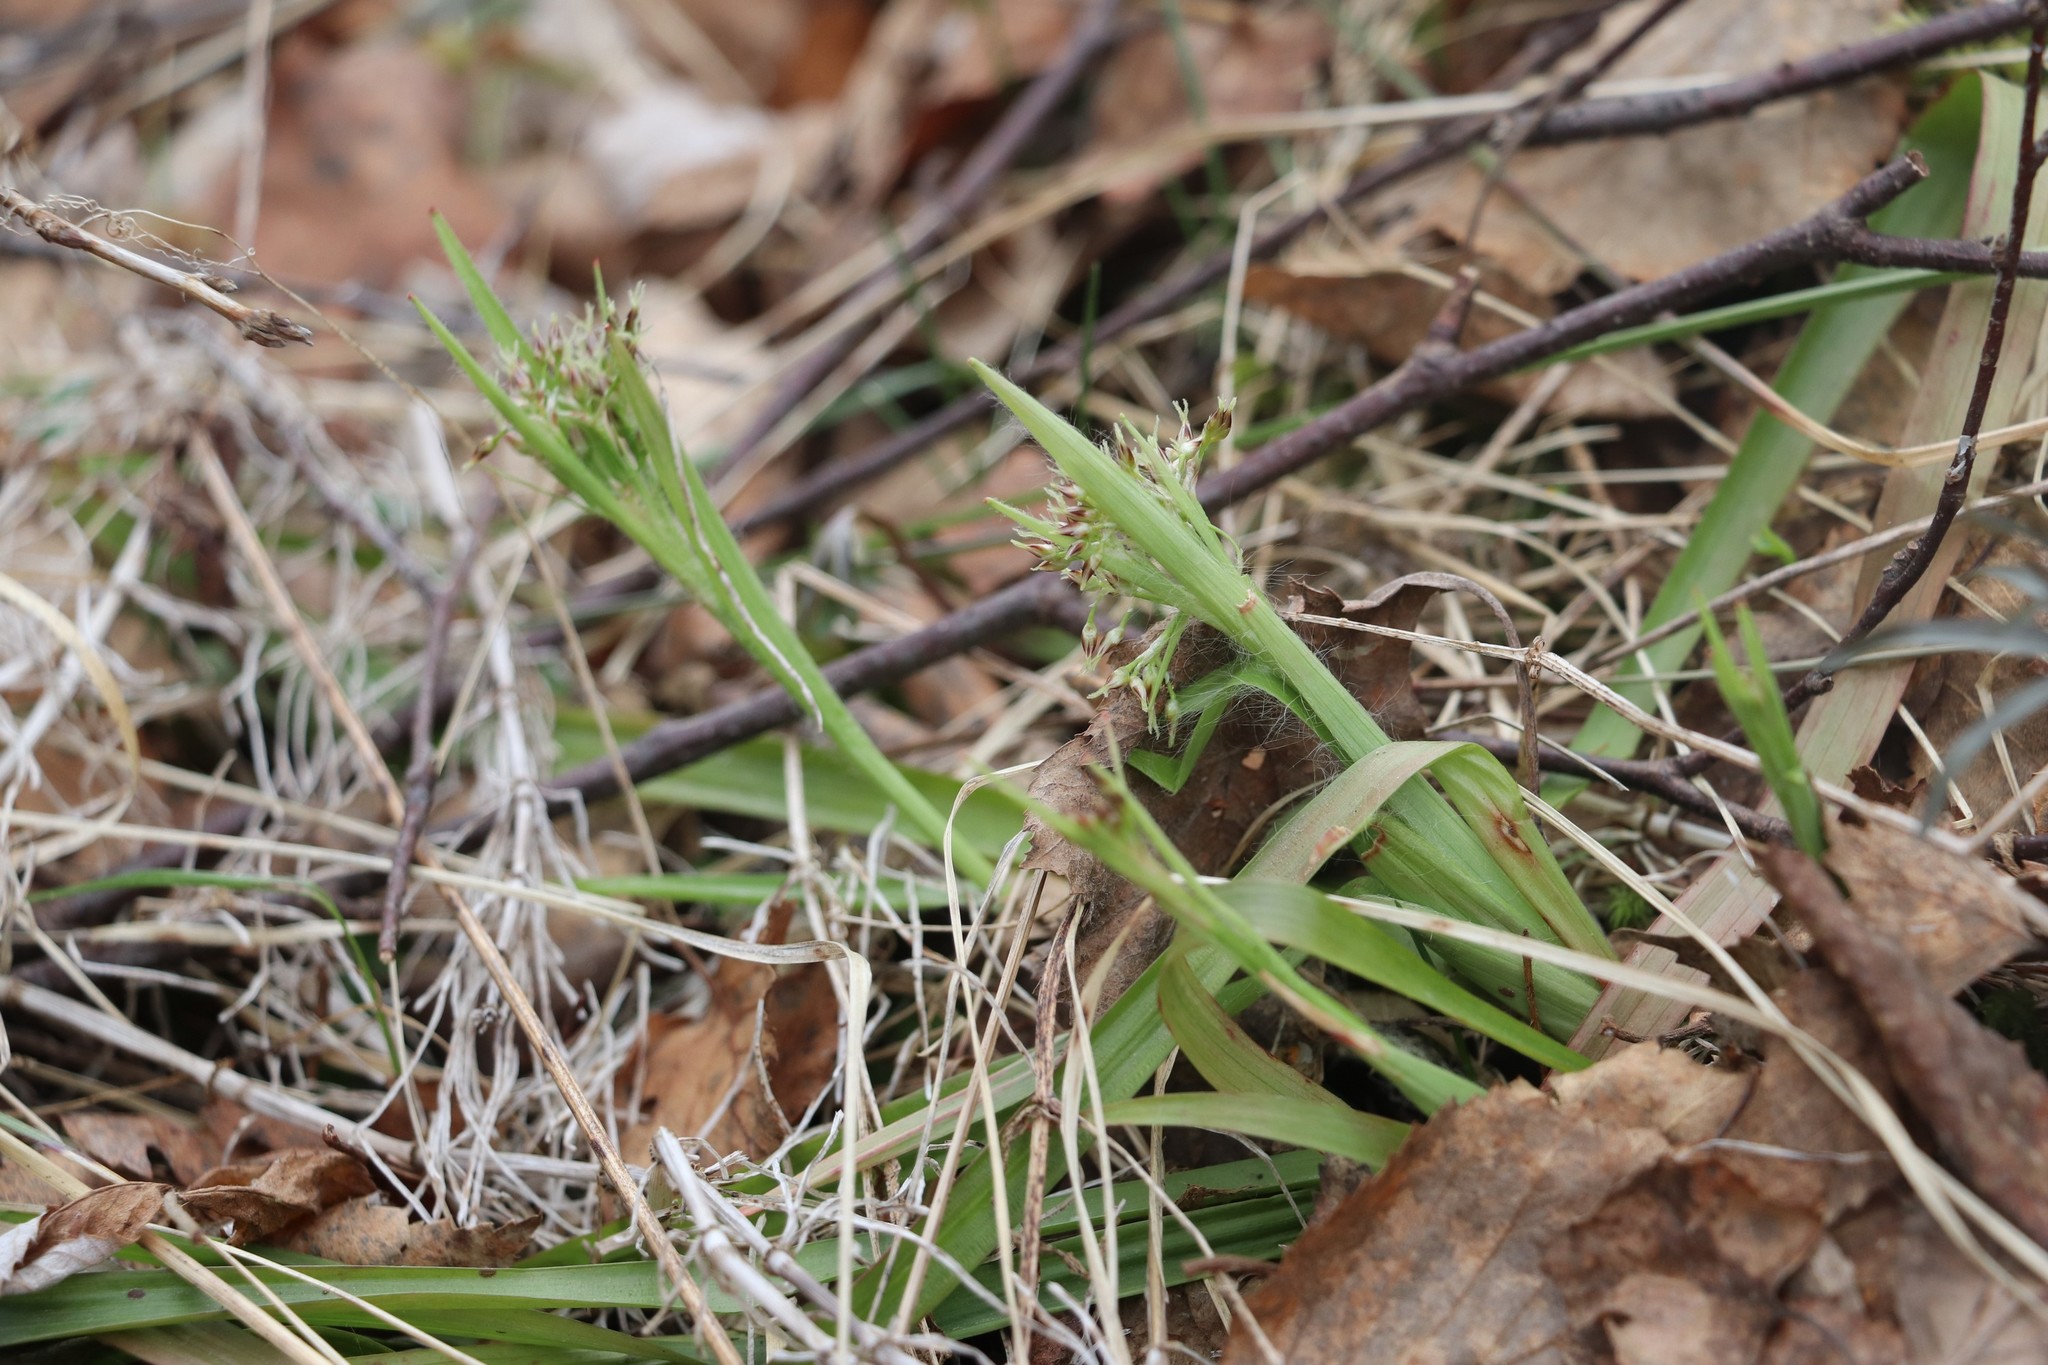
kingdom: Plantae
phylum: Tracheophyta
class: Liliopsida
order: Poales
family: Juncaceae
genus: Luzula
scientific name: Luzula pilosa
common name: Hairy wood-rush
